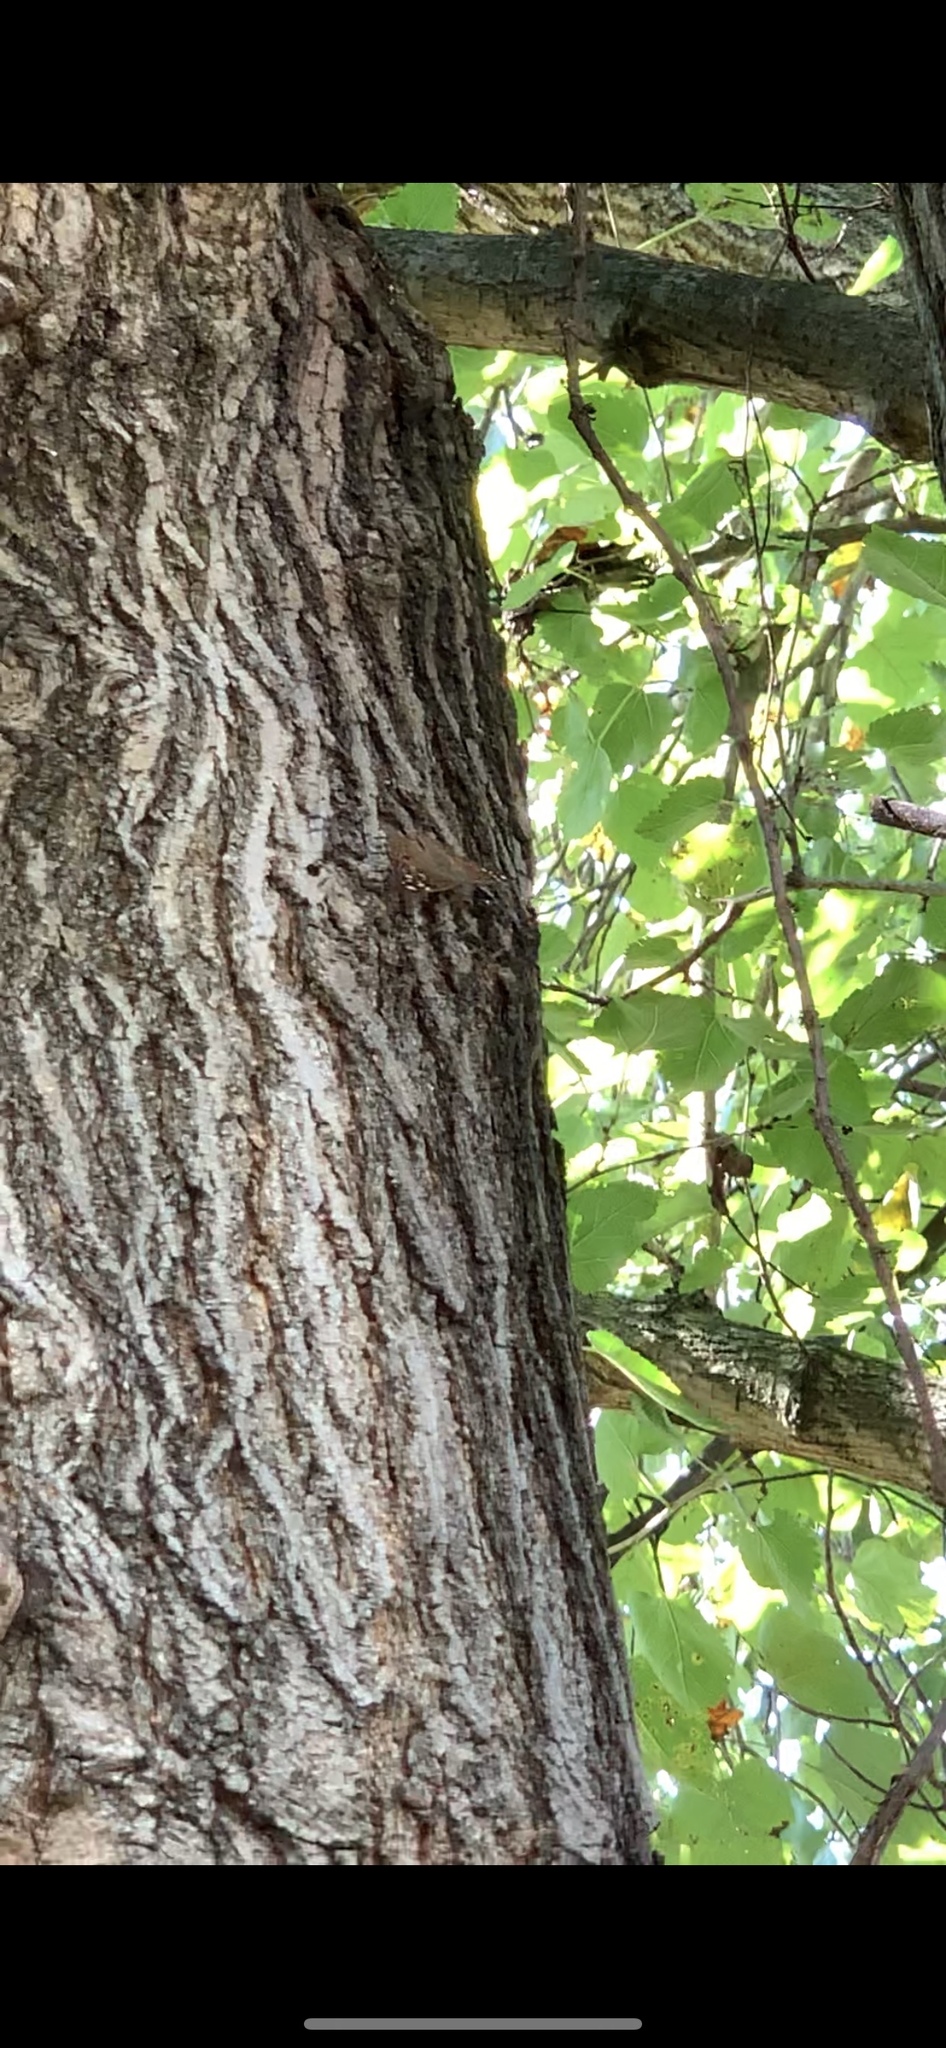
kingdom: Animalia
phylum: Arthropoda
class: Insecta
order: Lepidoptera
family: Nymphalidae
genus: Asterocampa
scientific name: Asterocampa celtis
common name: Hackberry emperor
